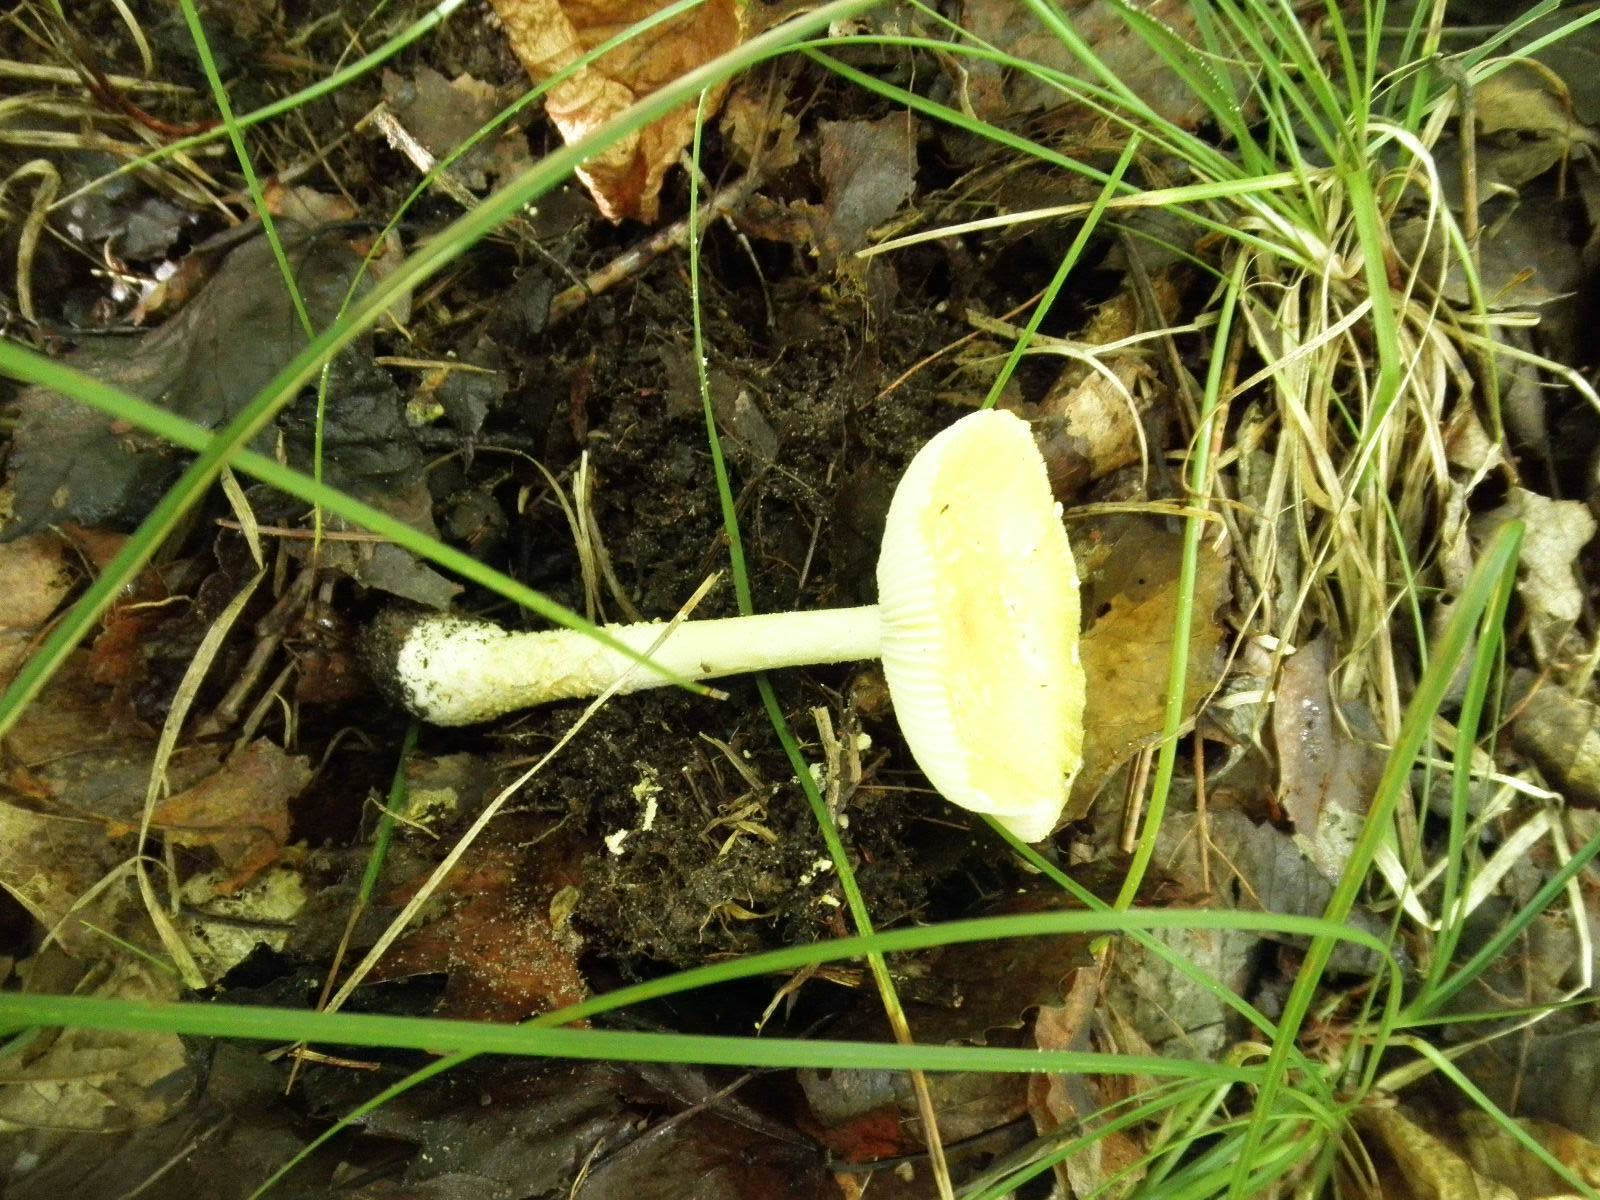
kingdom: Fungi
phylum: Basidiomycota
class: Agaricomycetes
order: Agaricales
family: Amanitaceae
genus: Amanita
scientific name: Amanita muscaria
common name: Fly agaric
